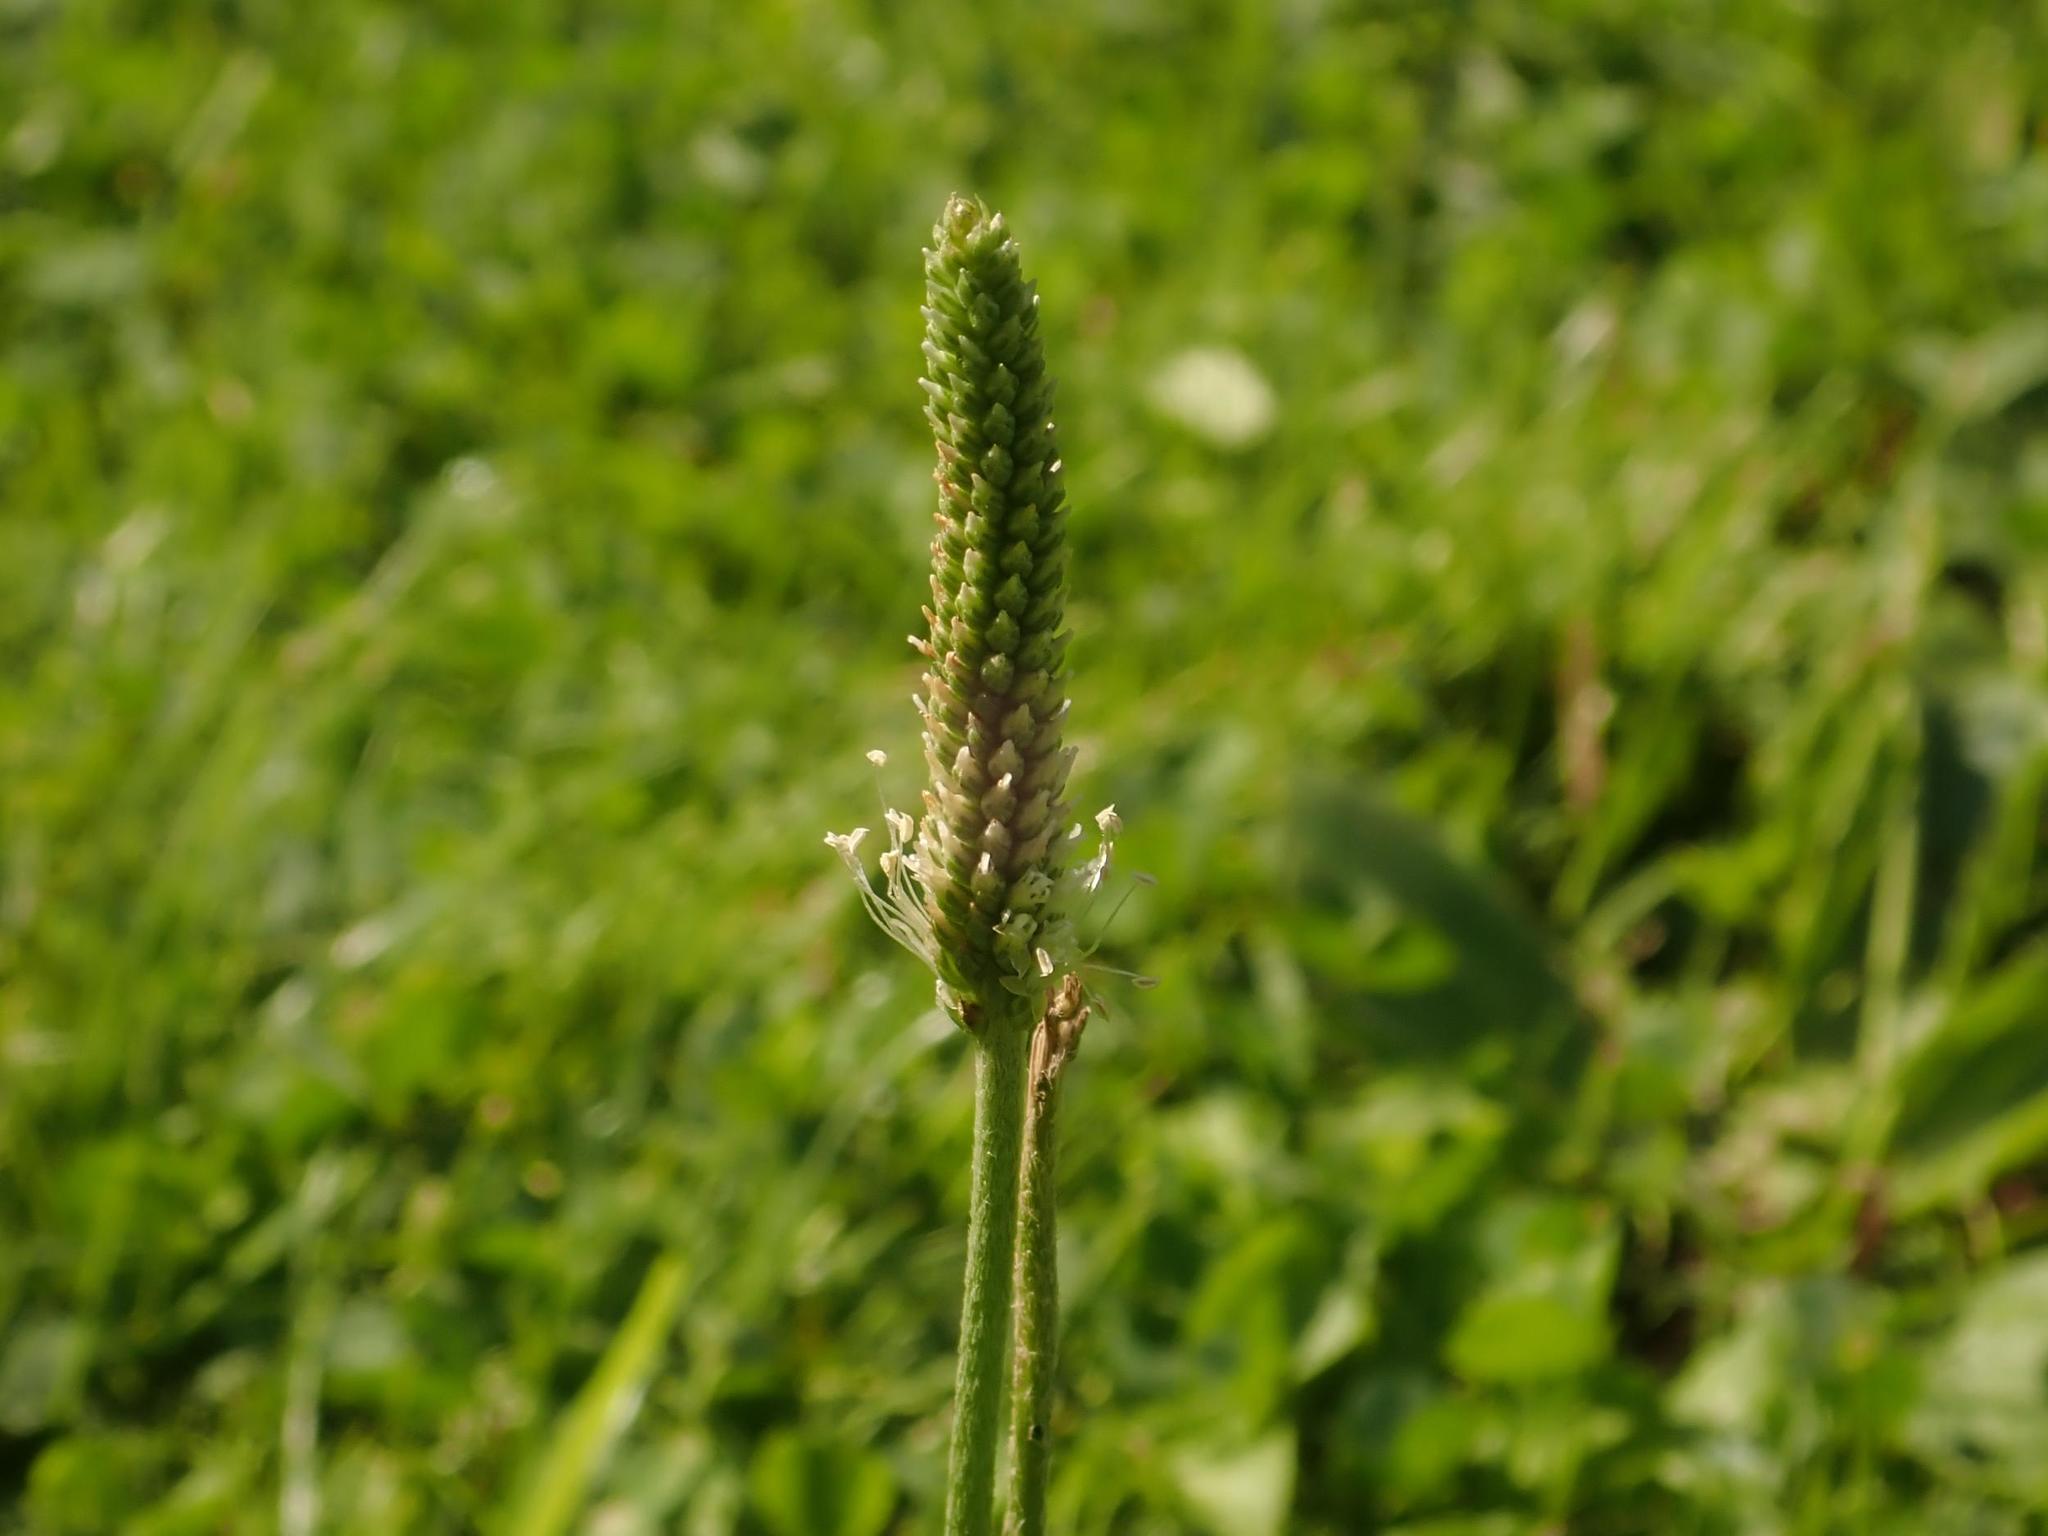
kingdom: Plantae
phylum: Tracheophyta
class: Magnoliopsida
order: Lamiales
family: Plantaginaceae
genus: Plantago
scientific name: Plantago media
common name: Hoary plantain
